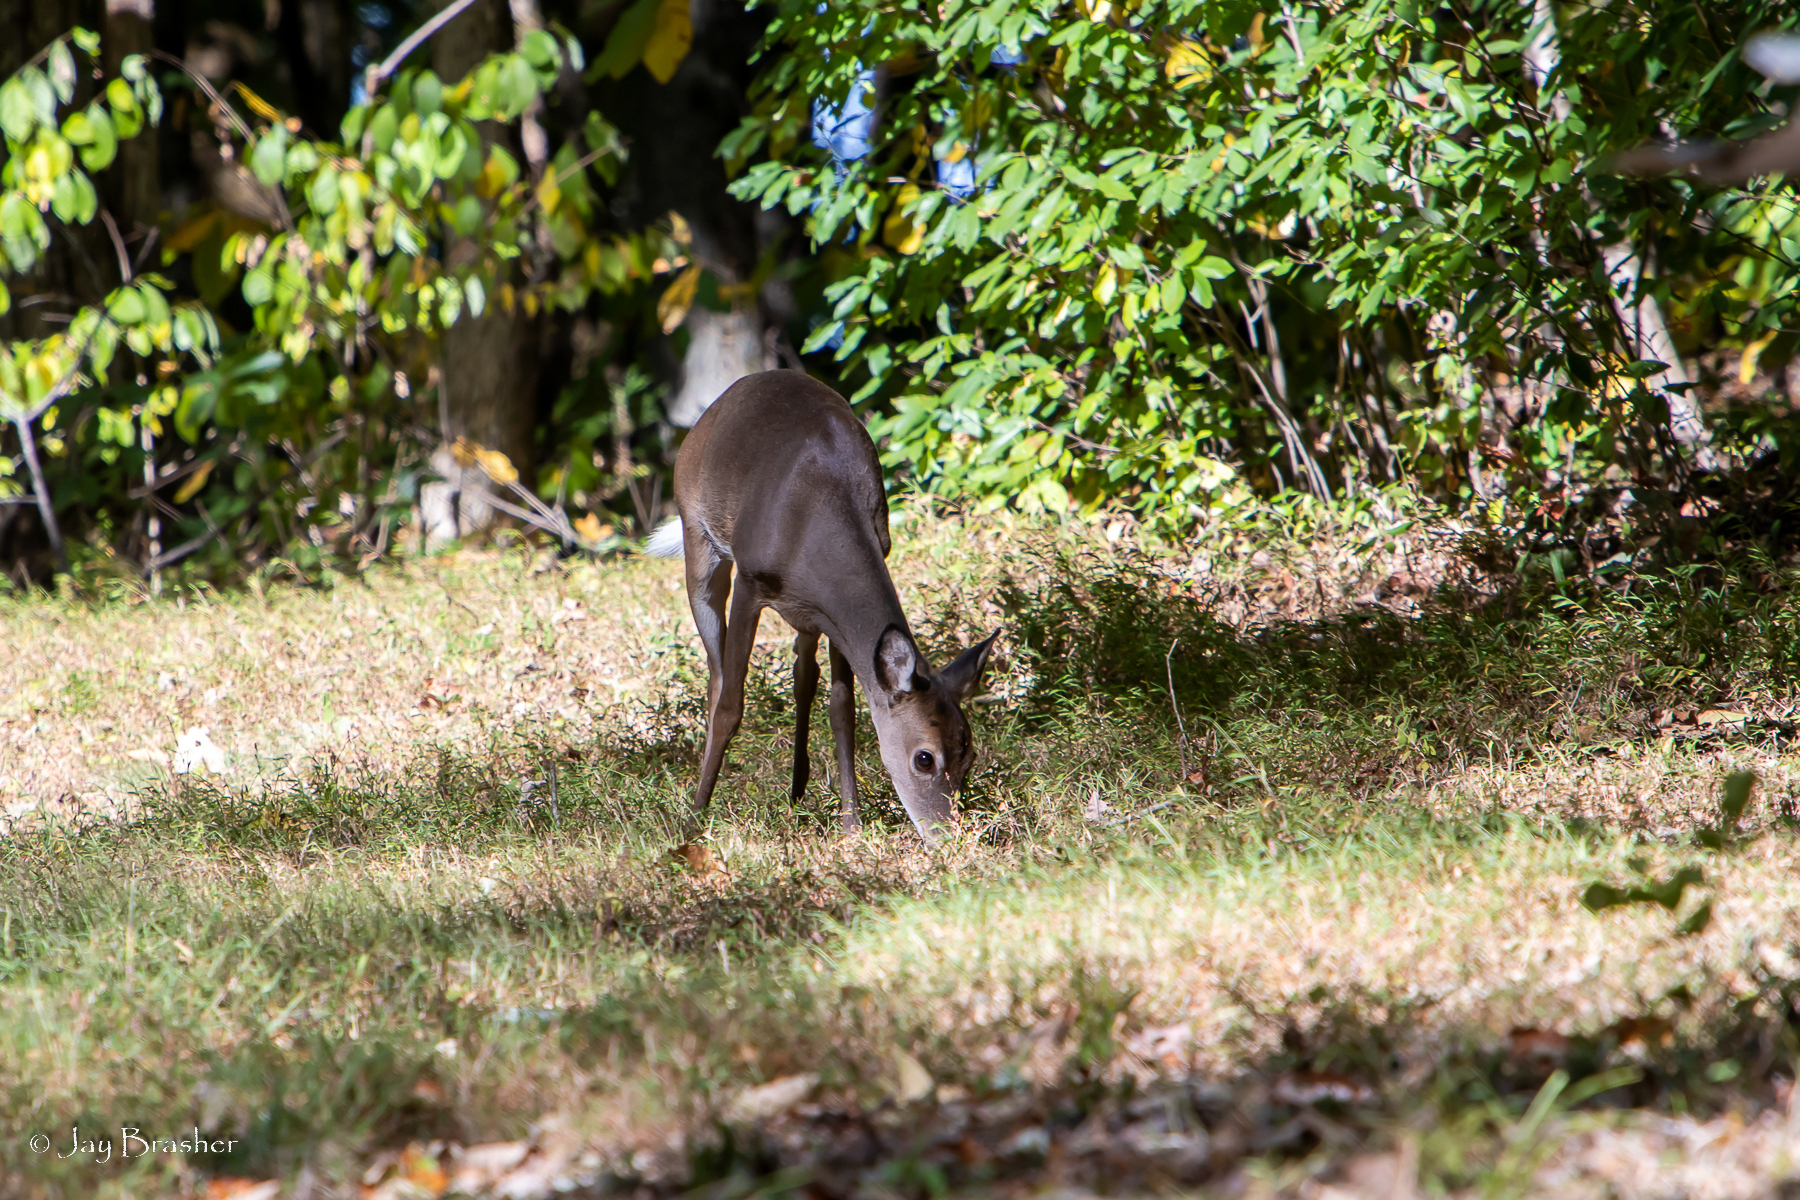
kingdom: Animalia
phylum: Chordata
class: Mammalia
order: Artiodactyla
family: Cervidae
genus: Odocoileus
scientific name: Odocoileus virginianus
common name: White-tailed deer
